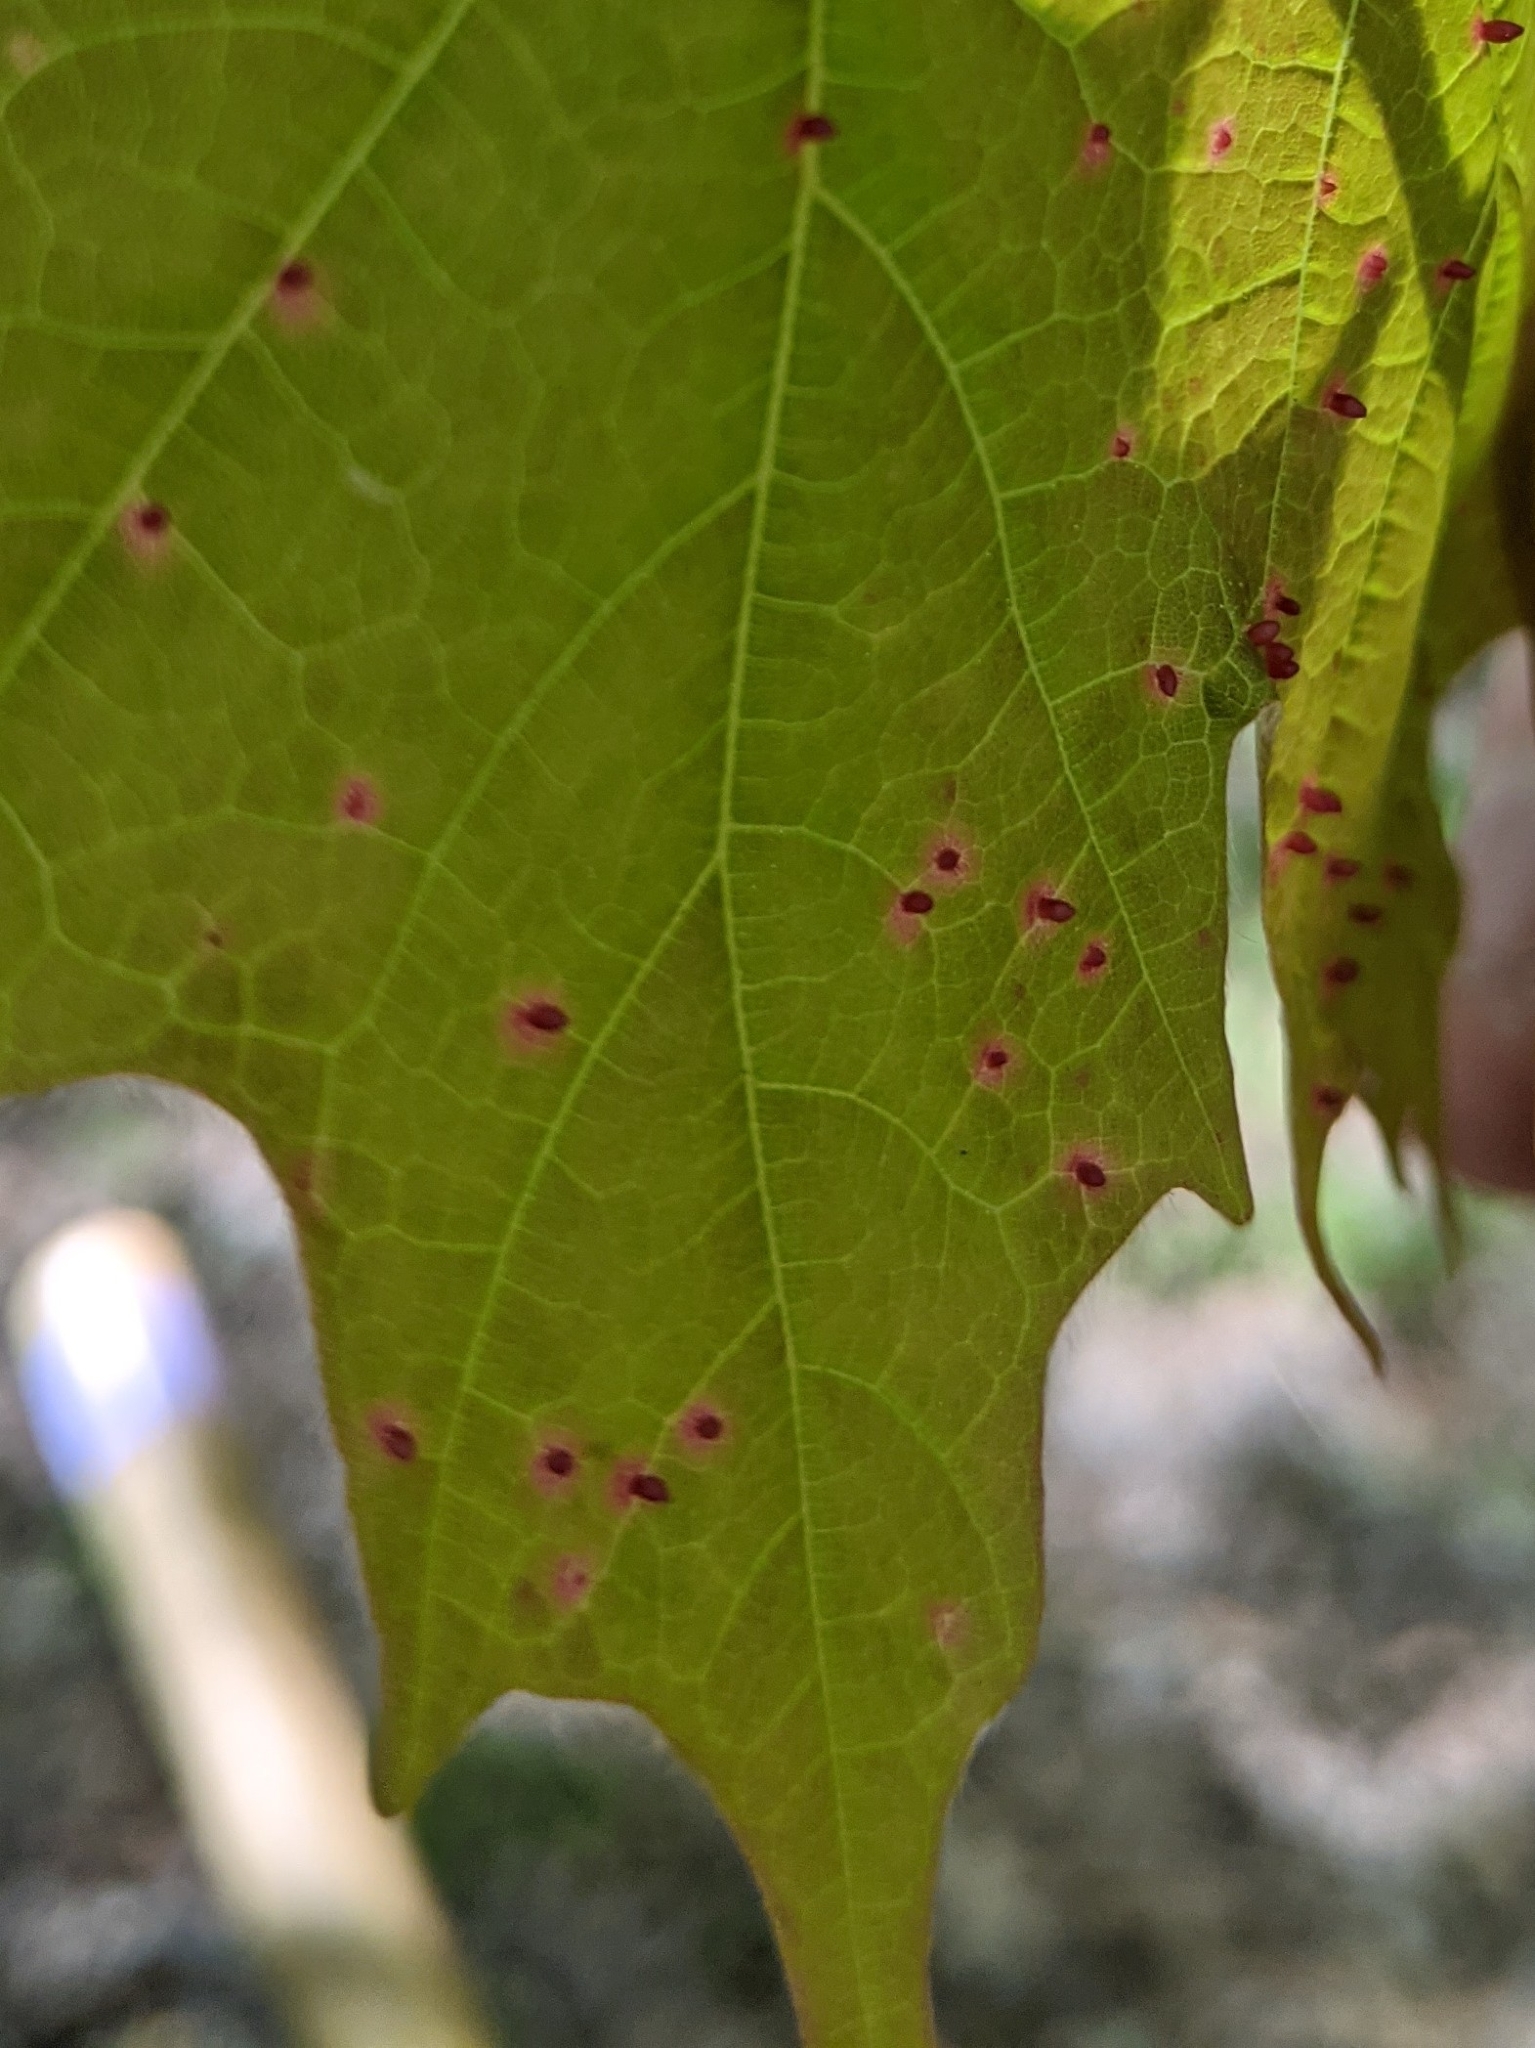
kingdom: Animalia
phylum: Arthropoda
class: Arachnida
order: Trombidiformes
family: Eriophyidae
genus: Vasates
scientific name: Vasates aceriscrumena
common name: Maple spindle gall mite
